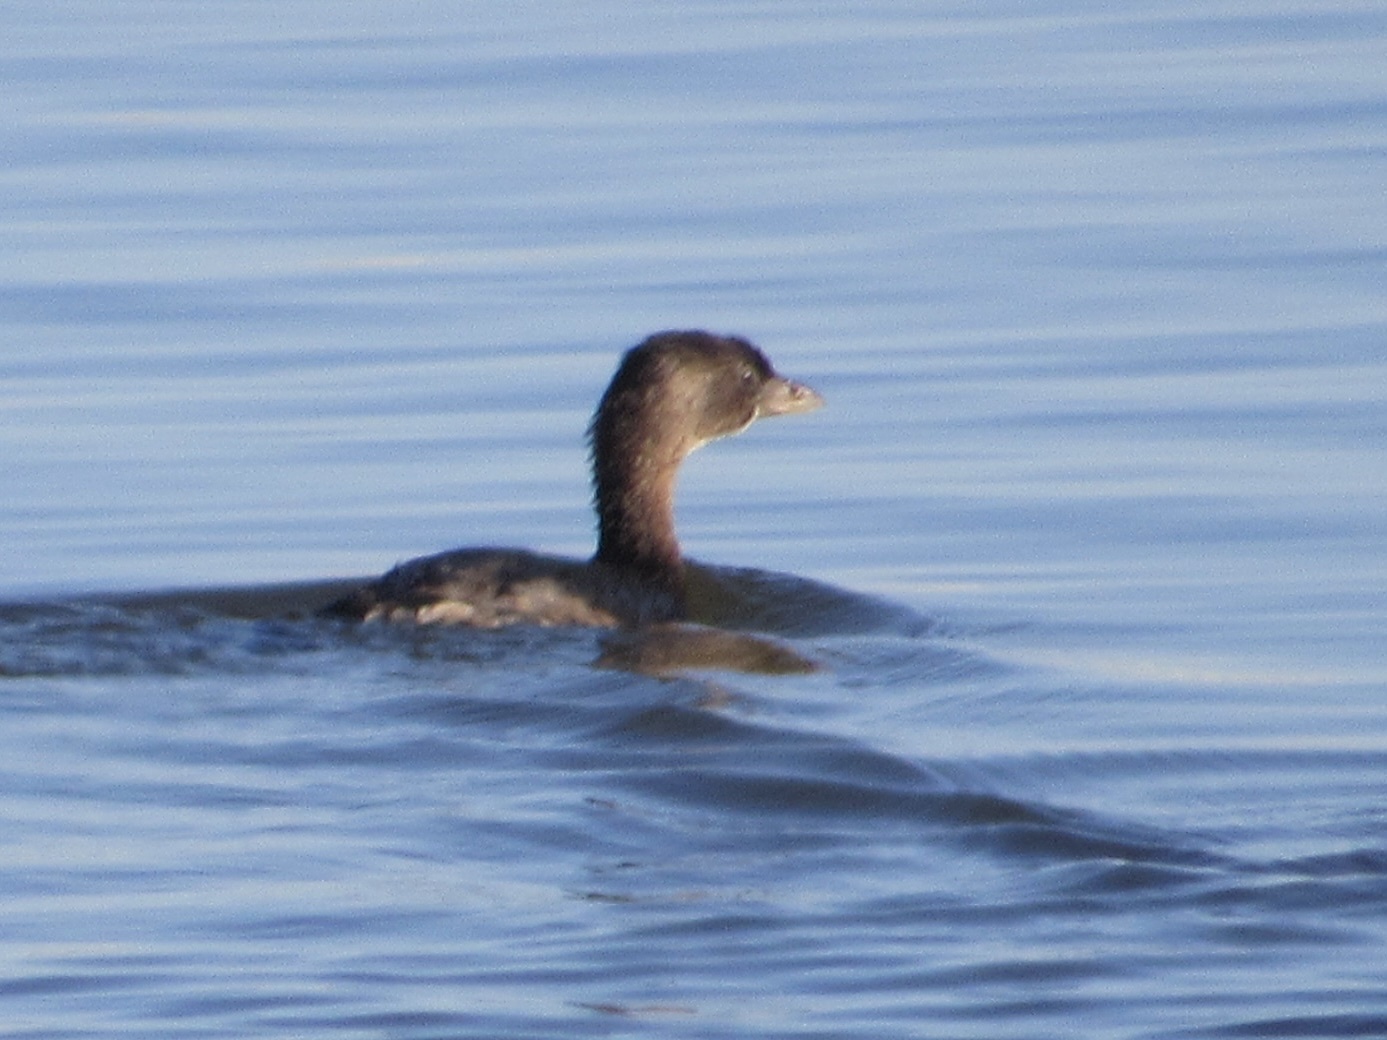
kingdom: Animalia
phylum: Chordata
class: Aves
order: Podicipediformes
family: Podicipedidae
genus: Podilymbus
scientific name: Podilymbus podiceps
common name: Pied-billed grebe
